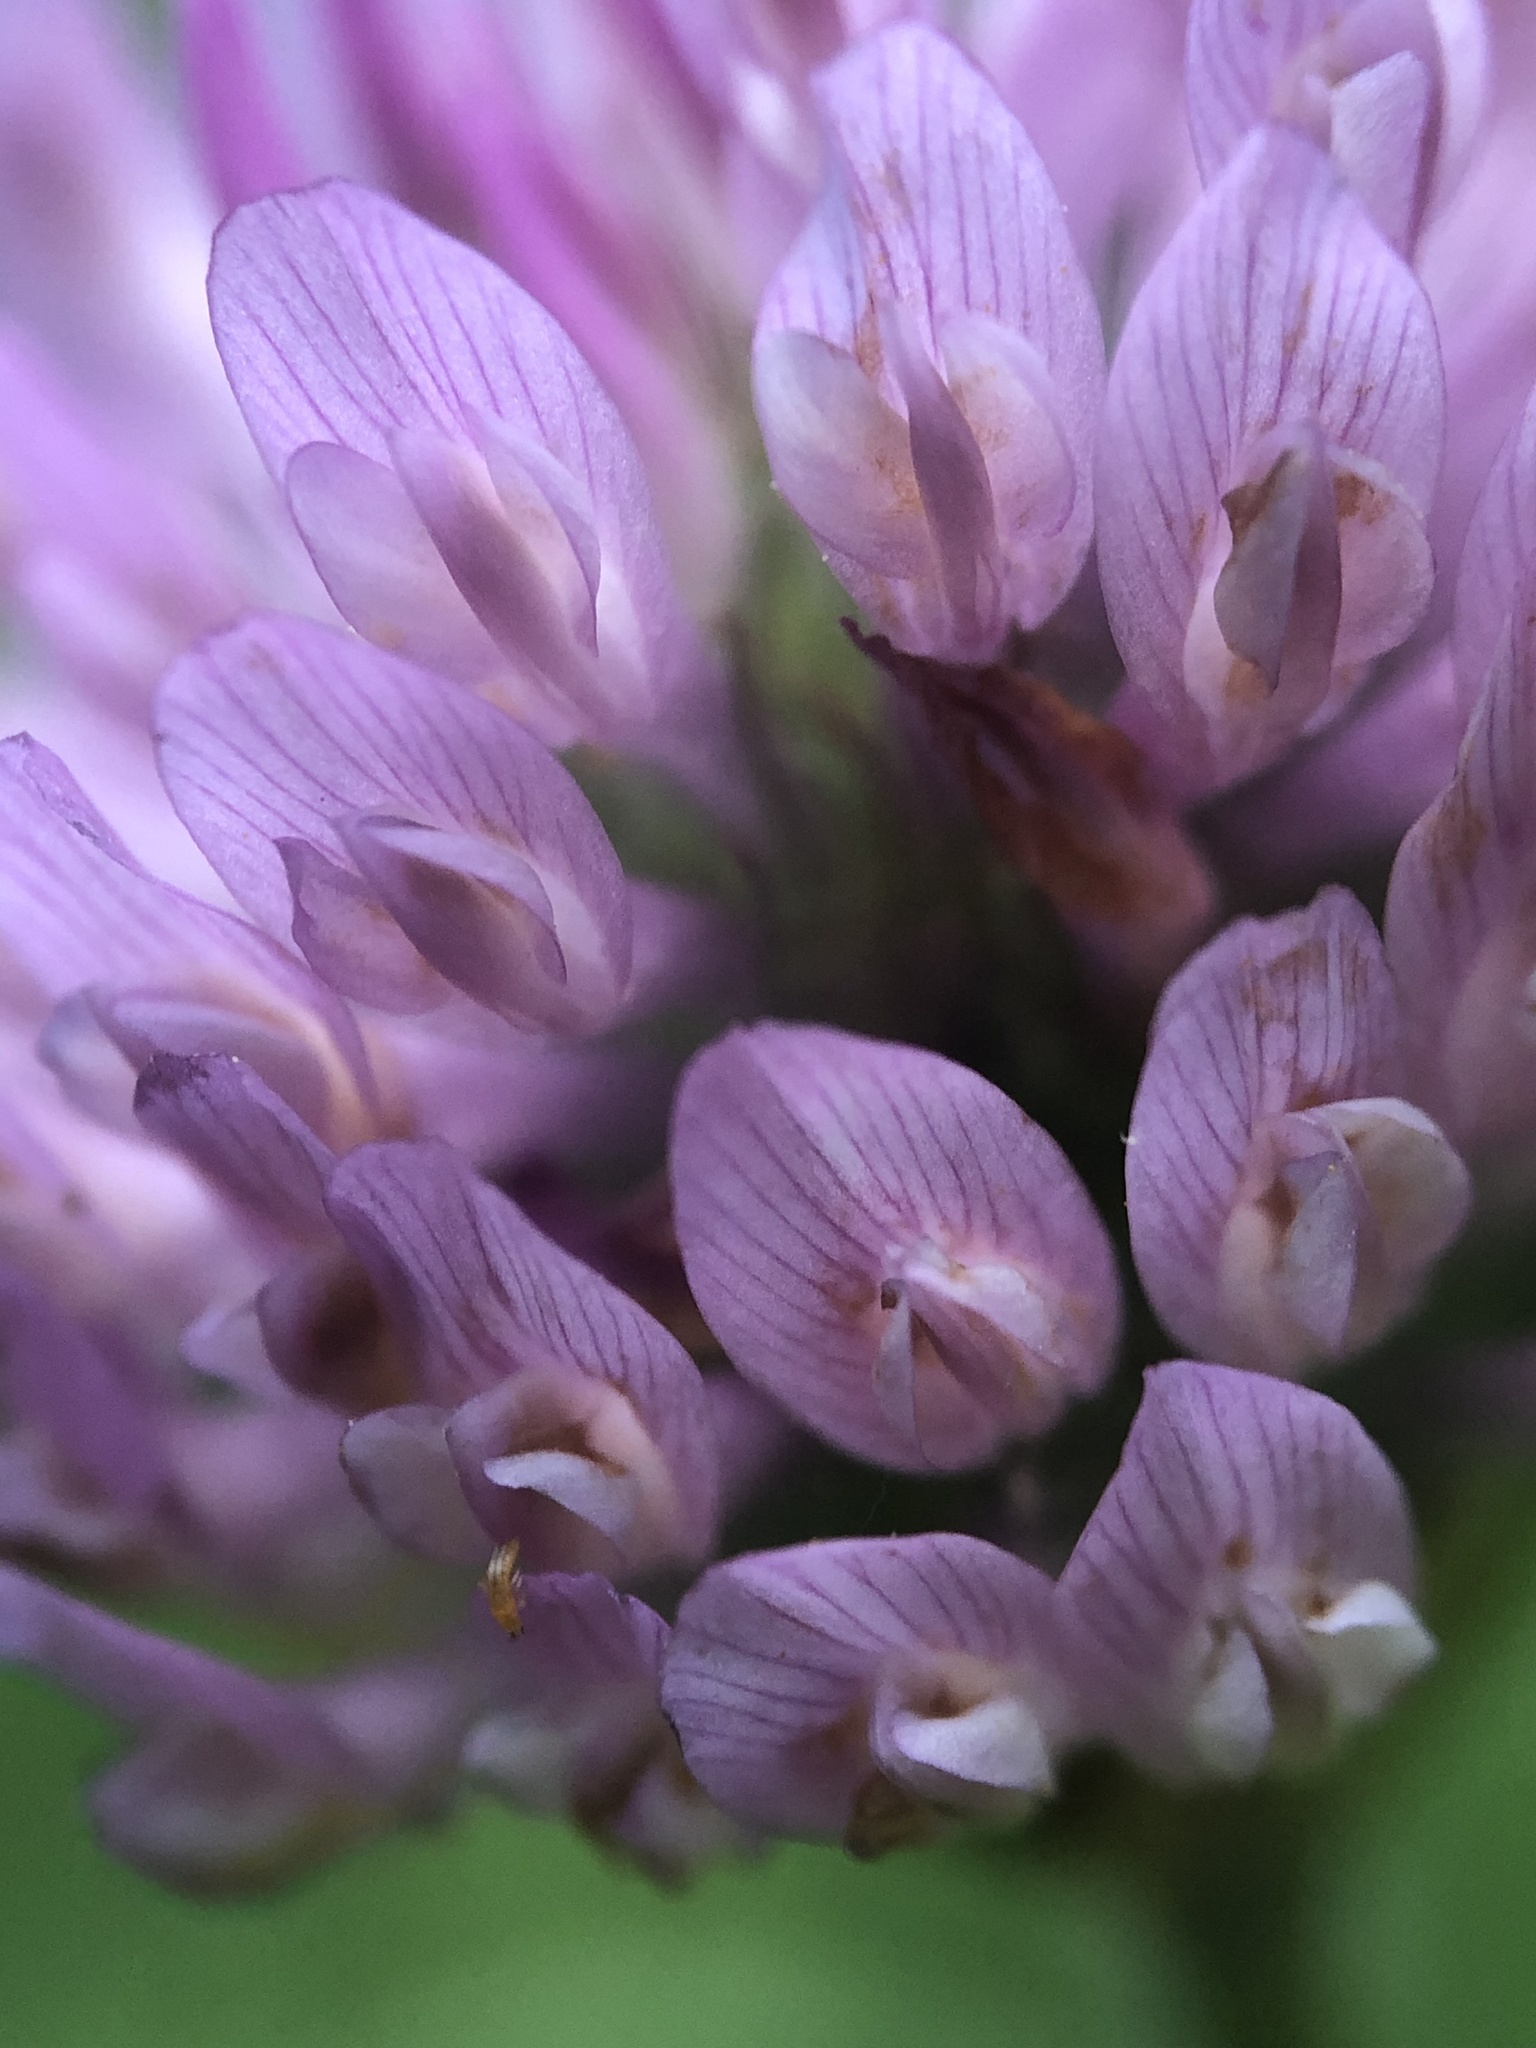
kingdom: Plantae
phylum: Tracheophyta
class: Magnoliopsida
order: Fabales
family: Fabaceae
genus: Trifolium
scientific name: Trifolium pratense
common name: Red clover
